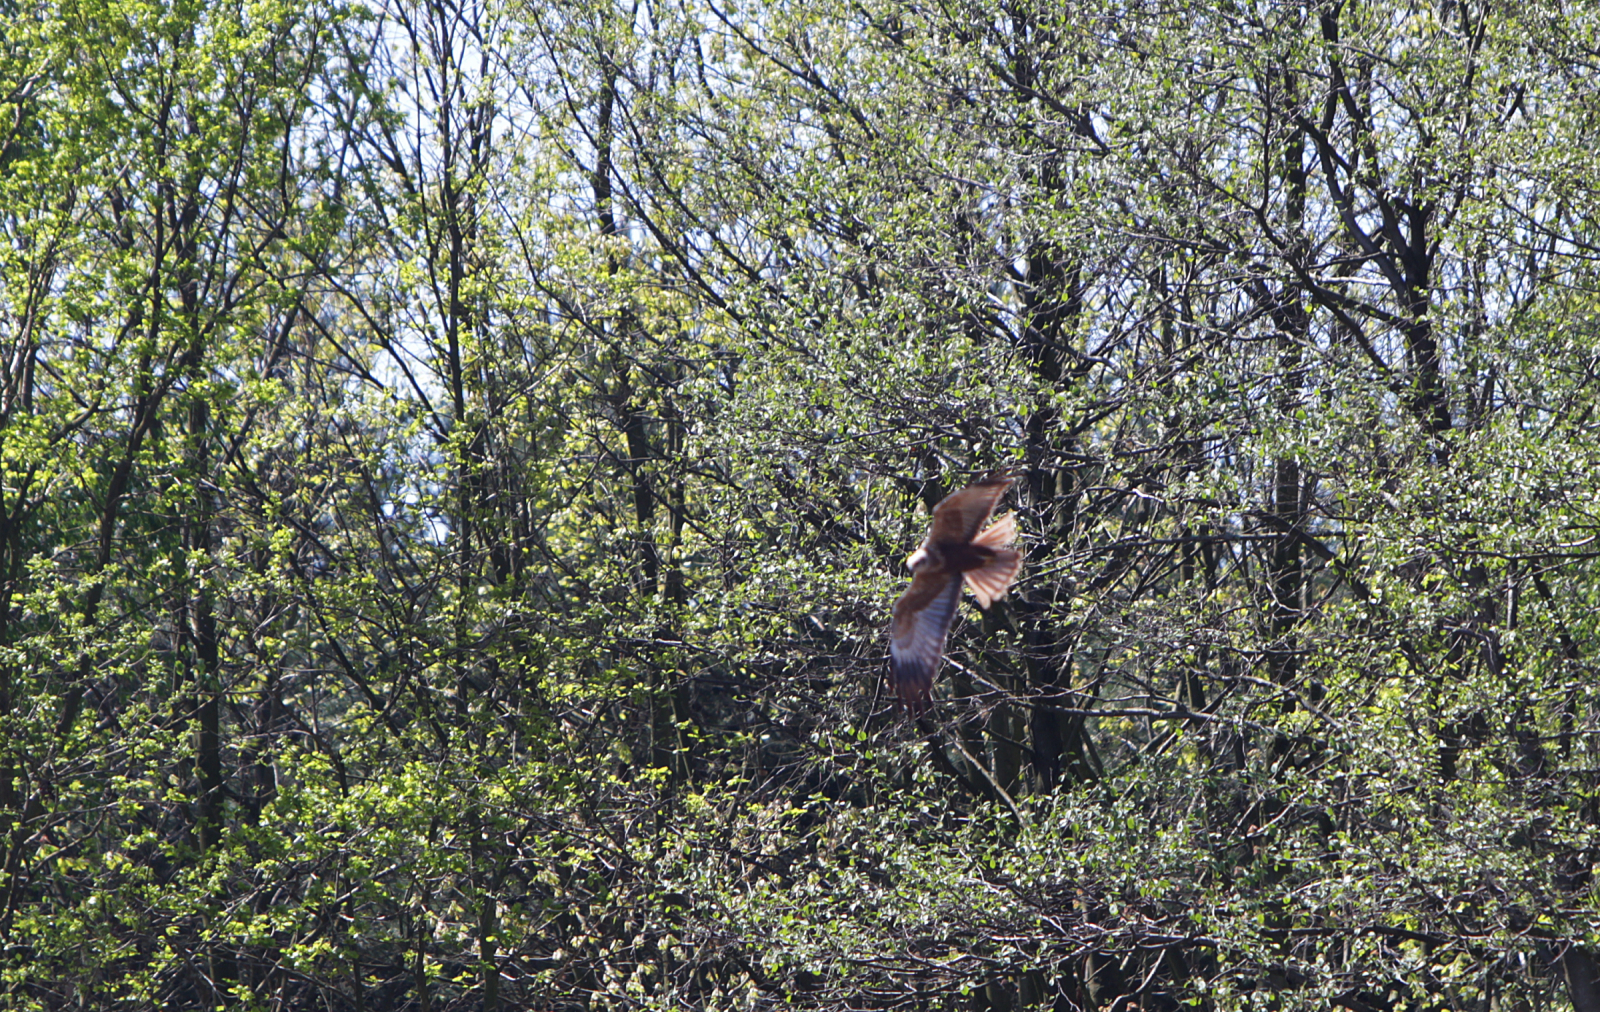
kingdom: Animalia
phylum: Chordata
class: Aves
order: Accipitriformes
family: Accipitridae
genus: Circus
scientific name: Circus aeruginosus
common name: Western marsh harrier
